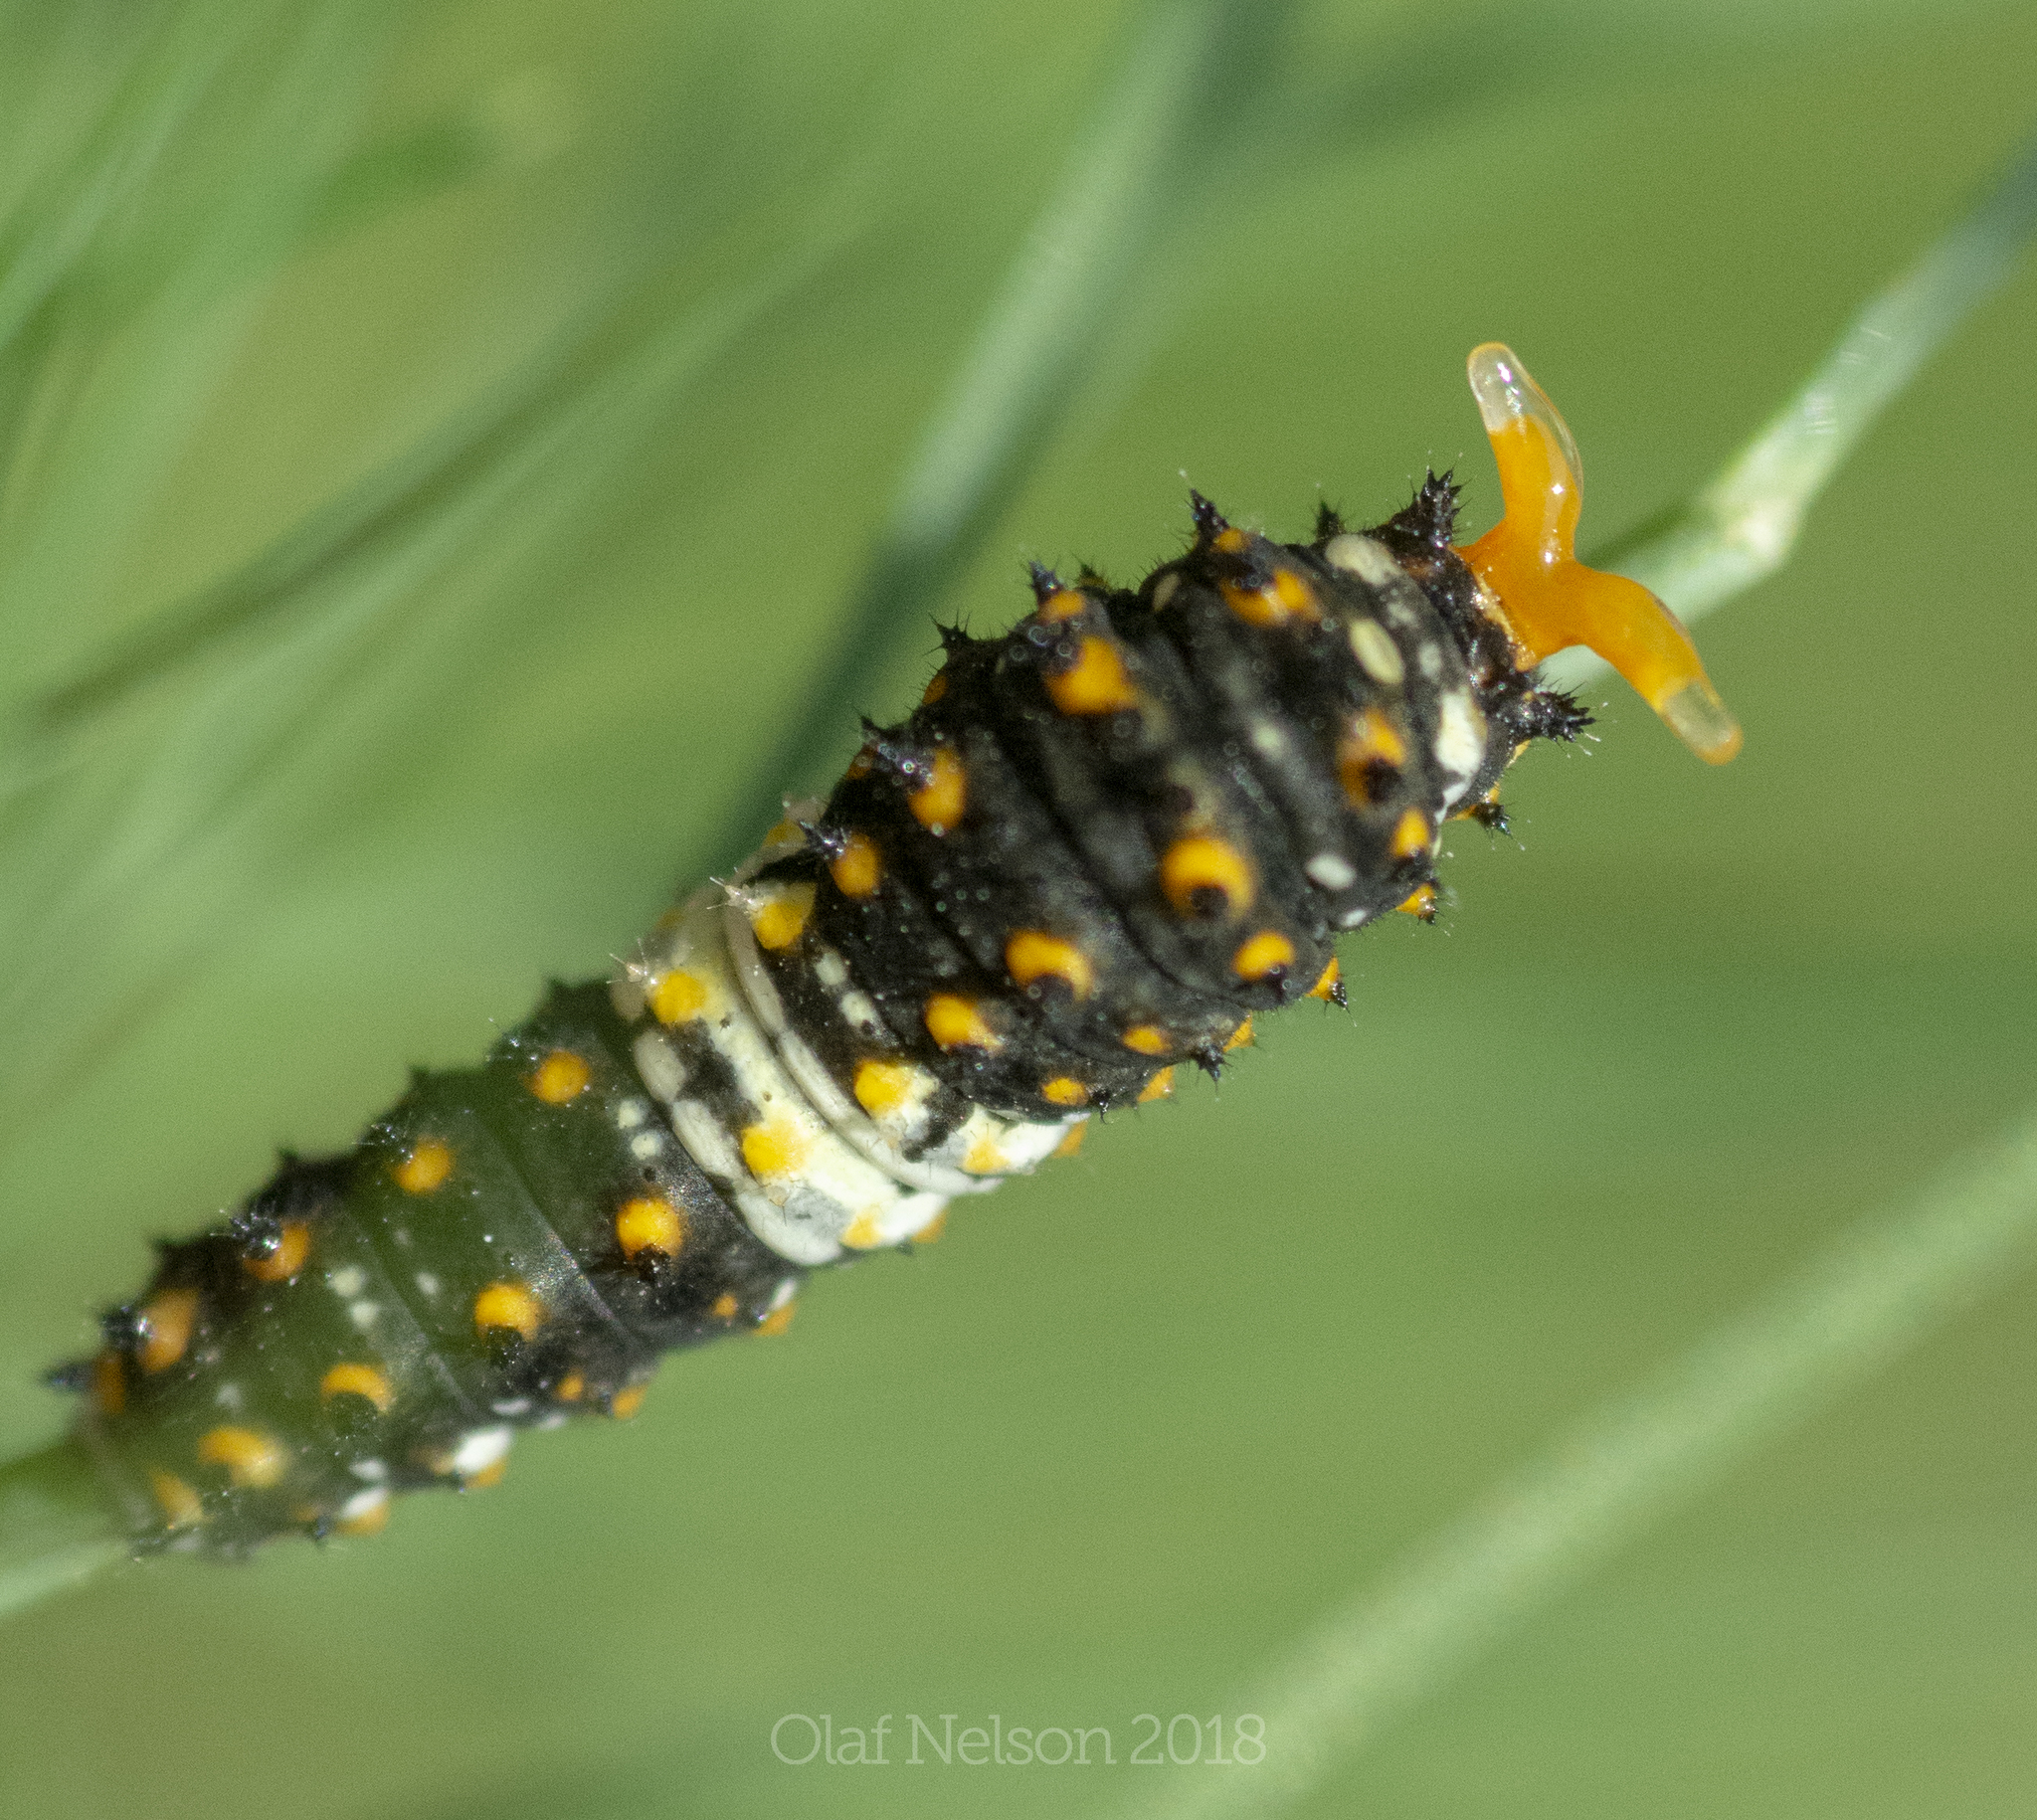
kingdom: Animalia
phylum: Arthropoda
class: Insecta
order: Lepidoptera
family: Papilionidae
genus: Papilio
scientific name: Papilio polyxenes
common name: Black swallowtail
